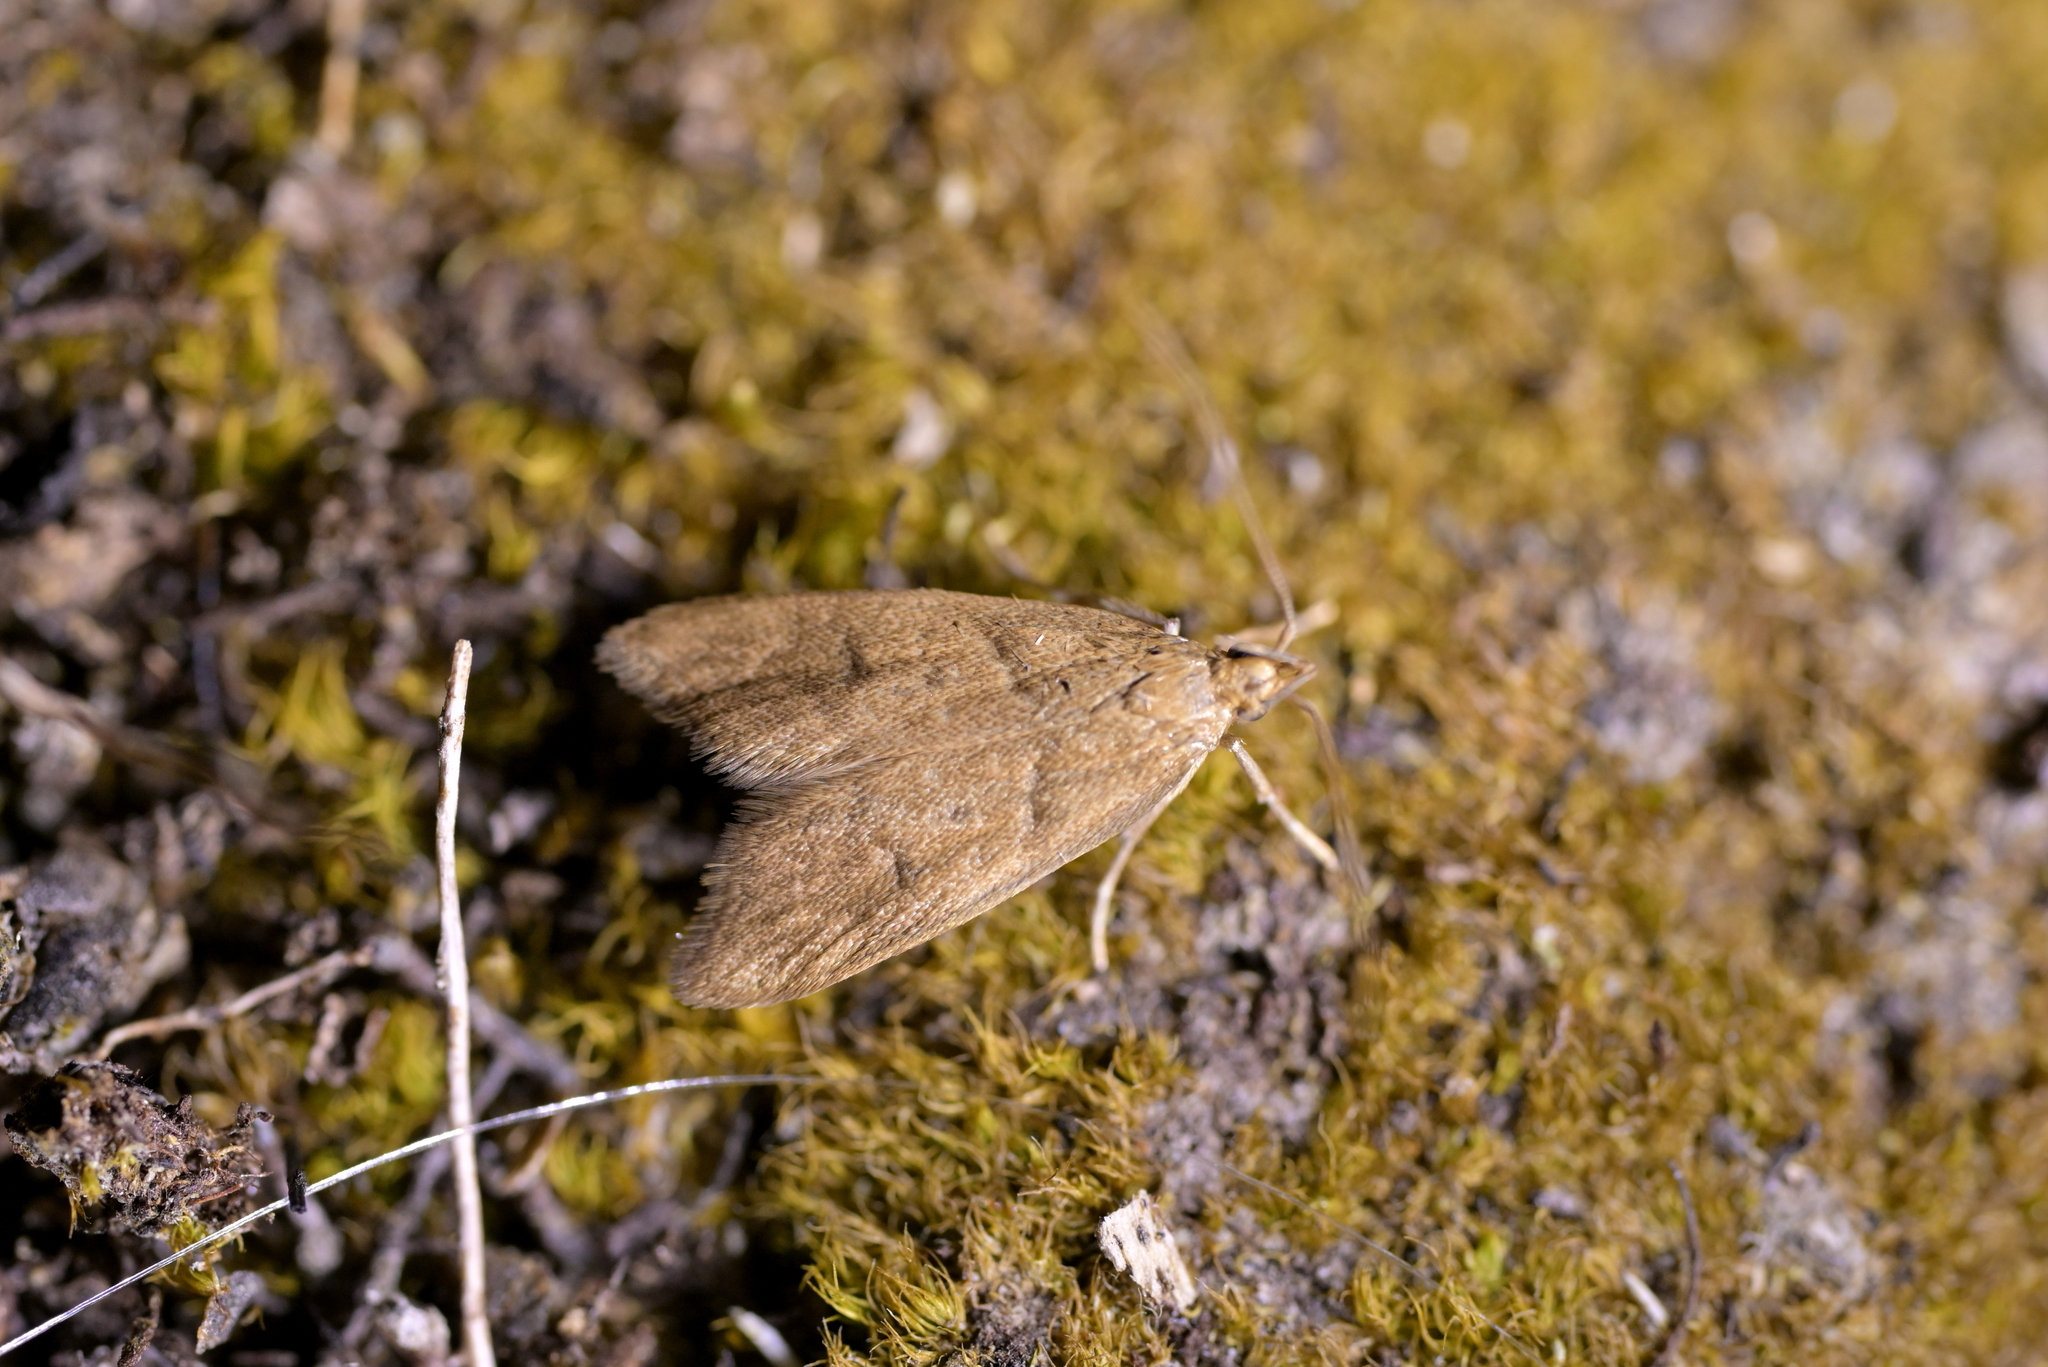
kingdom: Animalia
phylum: Arthropoda
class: Insecta
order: Lepidoptera
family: Oecophoridae
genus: Gymnobathra
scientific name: Gymnobathra hamatella
